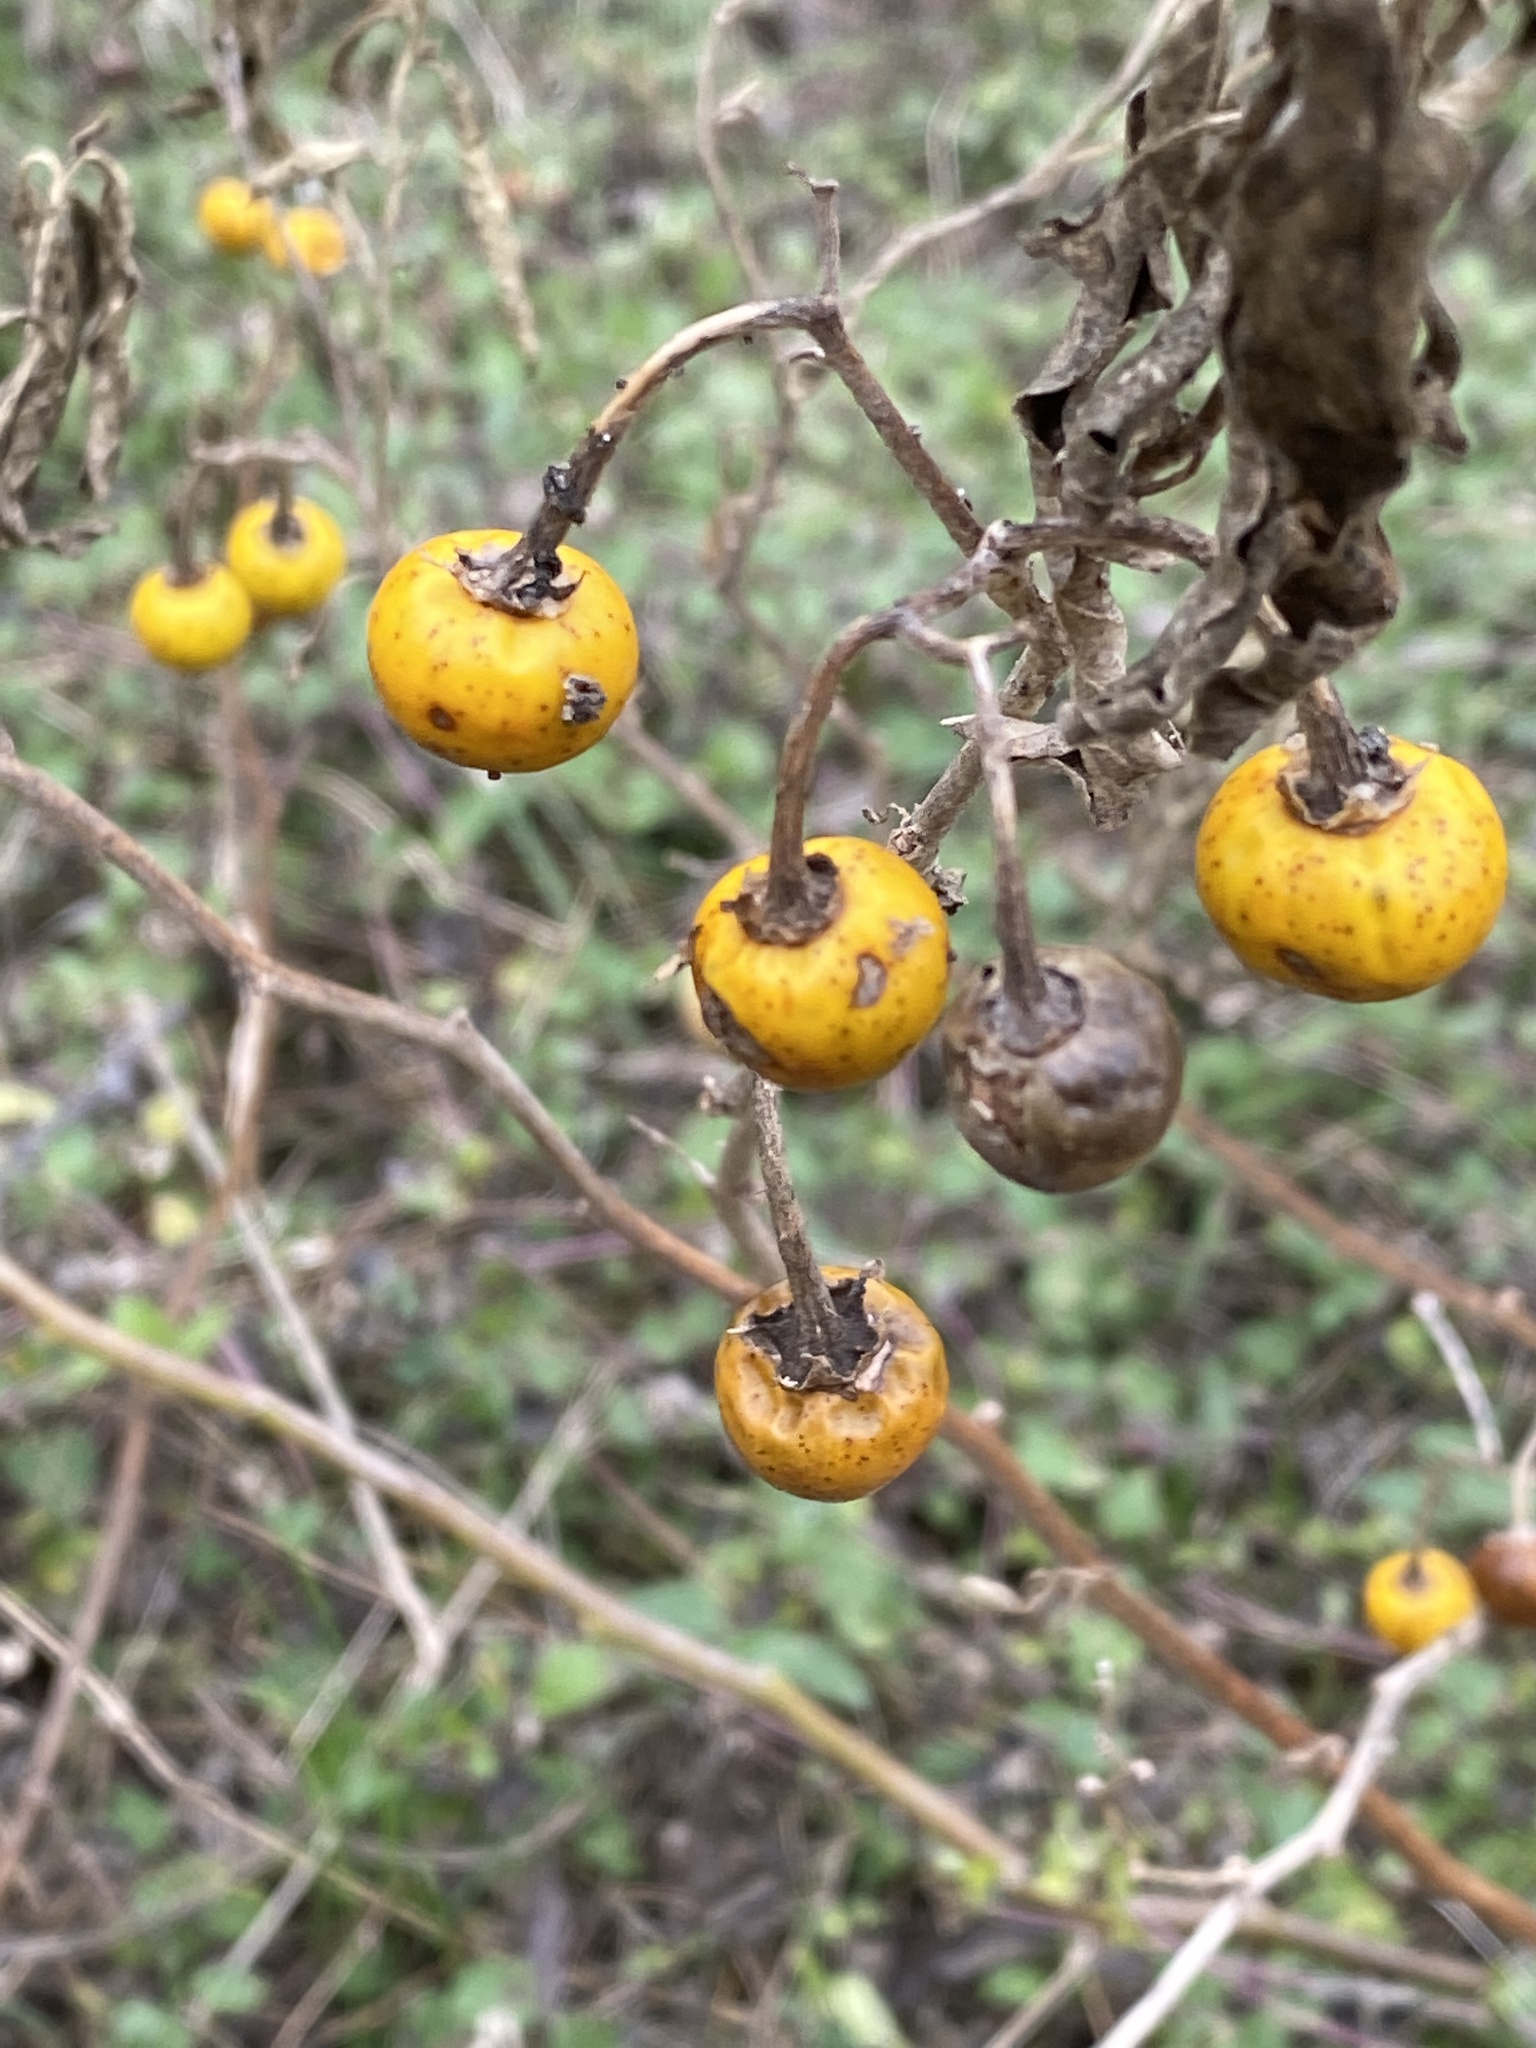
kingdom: Plantae
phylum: Tracheophyta
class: Magnoliopsida
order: Solanales
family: Solanaceae
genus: Solanum
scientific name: Solanum elaeagnifolium
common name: Silverleaf nightshade
